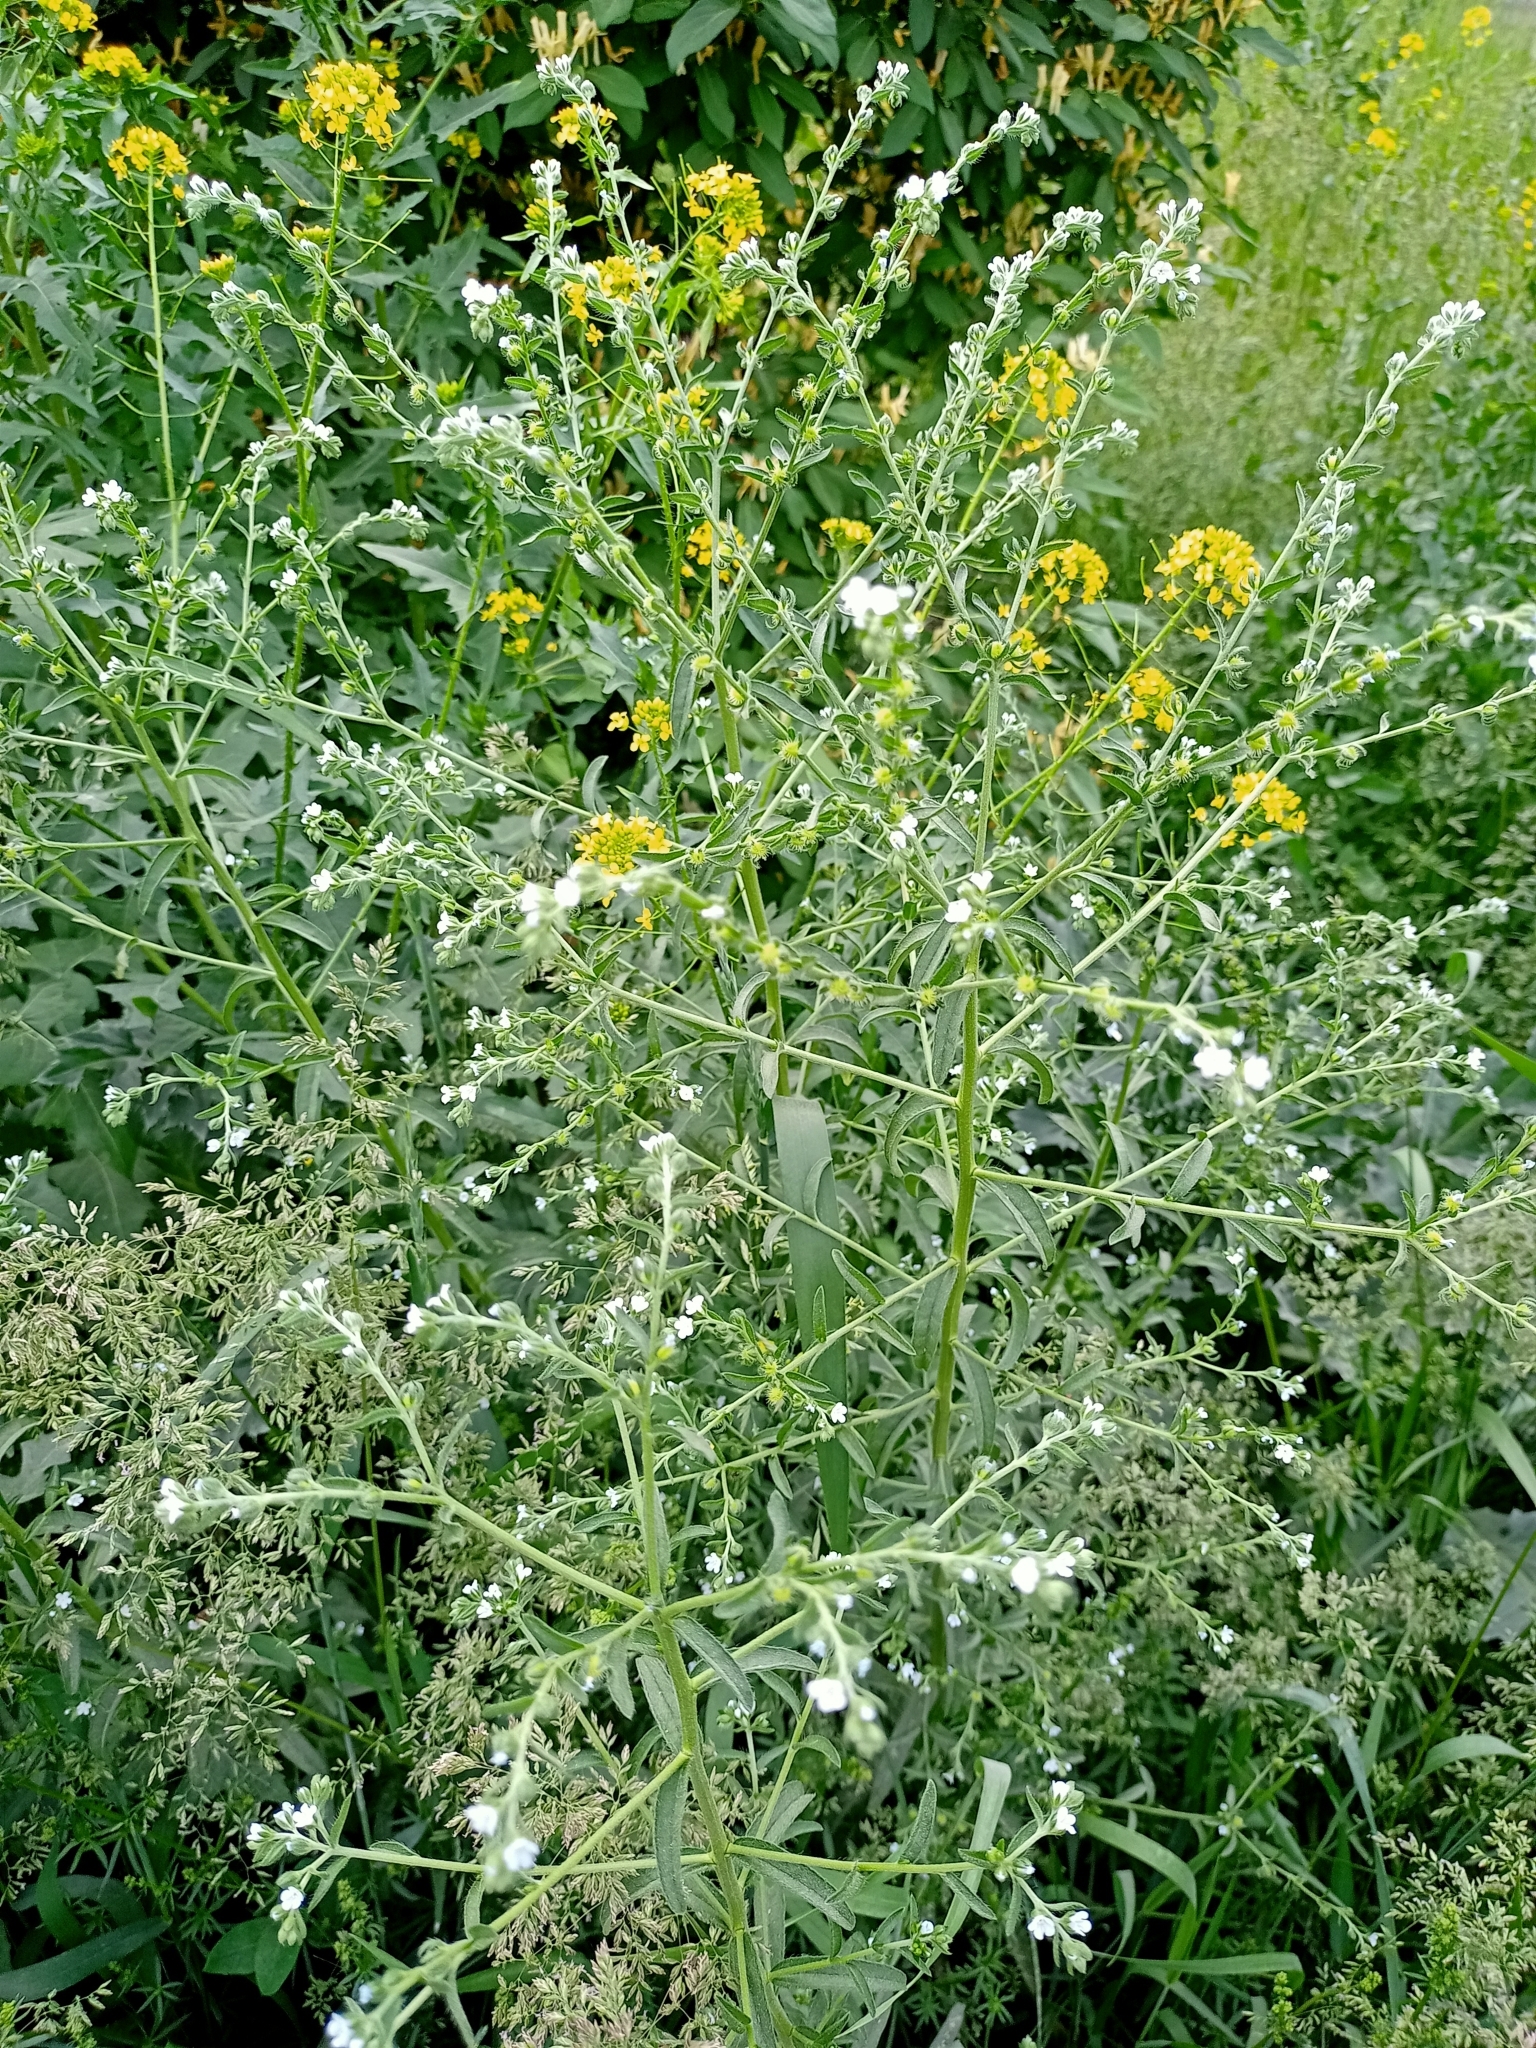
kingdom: Plantae
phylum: Tracheophyta
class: Magnoliopsida
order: Brassicales
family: Brassicaceae
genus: Sisymbrium
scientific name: Sisymbrium loeselii
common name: False london-rocket
